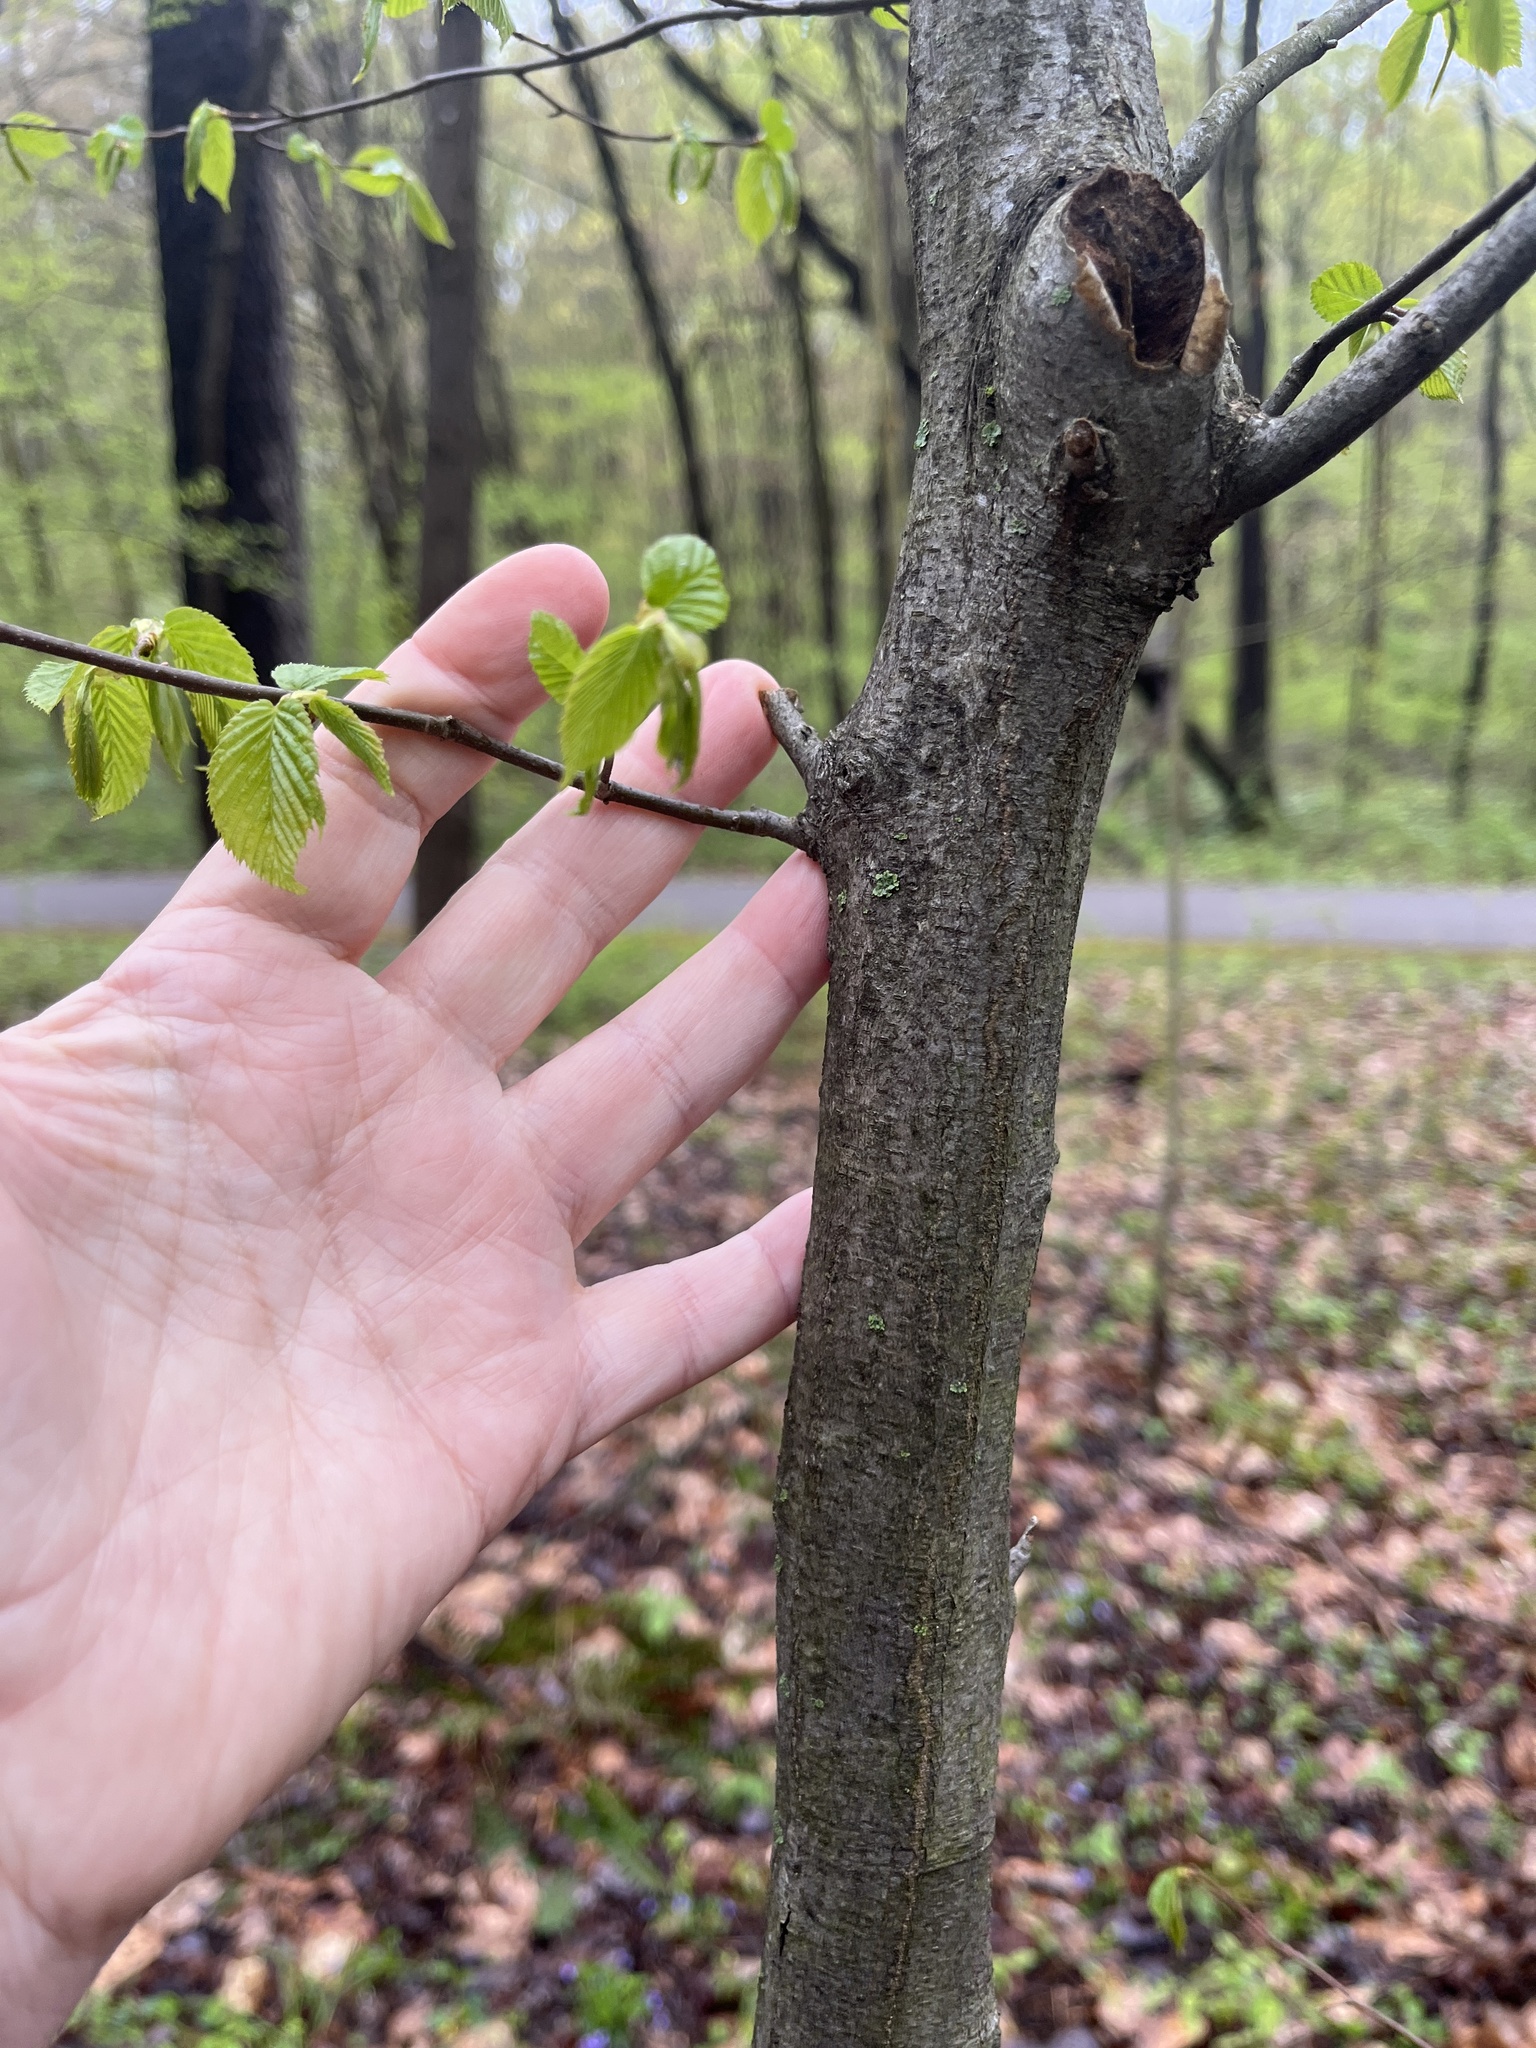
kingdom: Plantae
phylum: Tracheophyta
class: Magnoliopsida
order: Fagales
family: Betulaceae
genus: Carpinus
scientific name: Carpinus caroliniana
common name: American hornbeam
